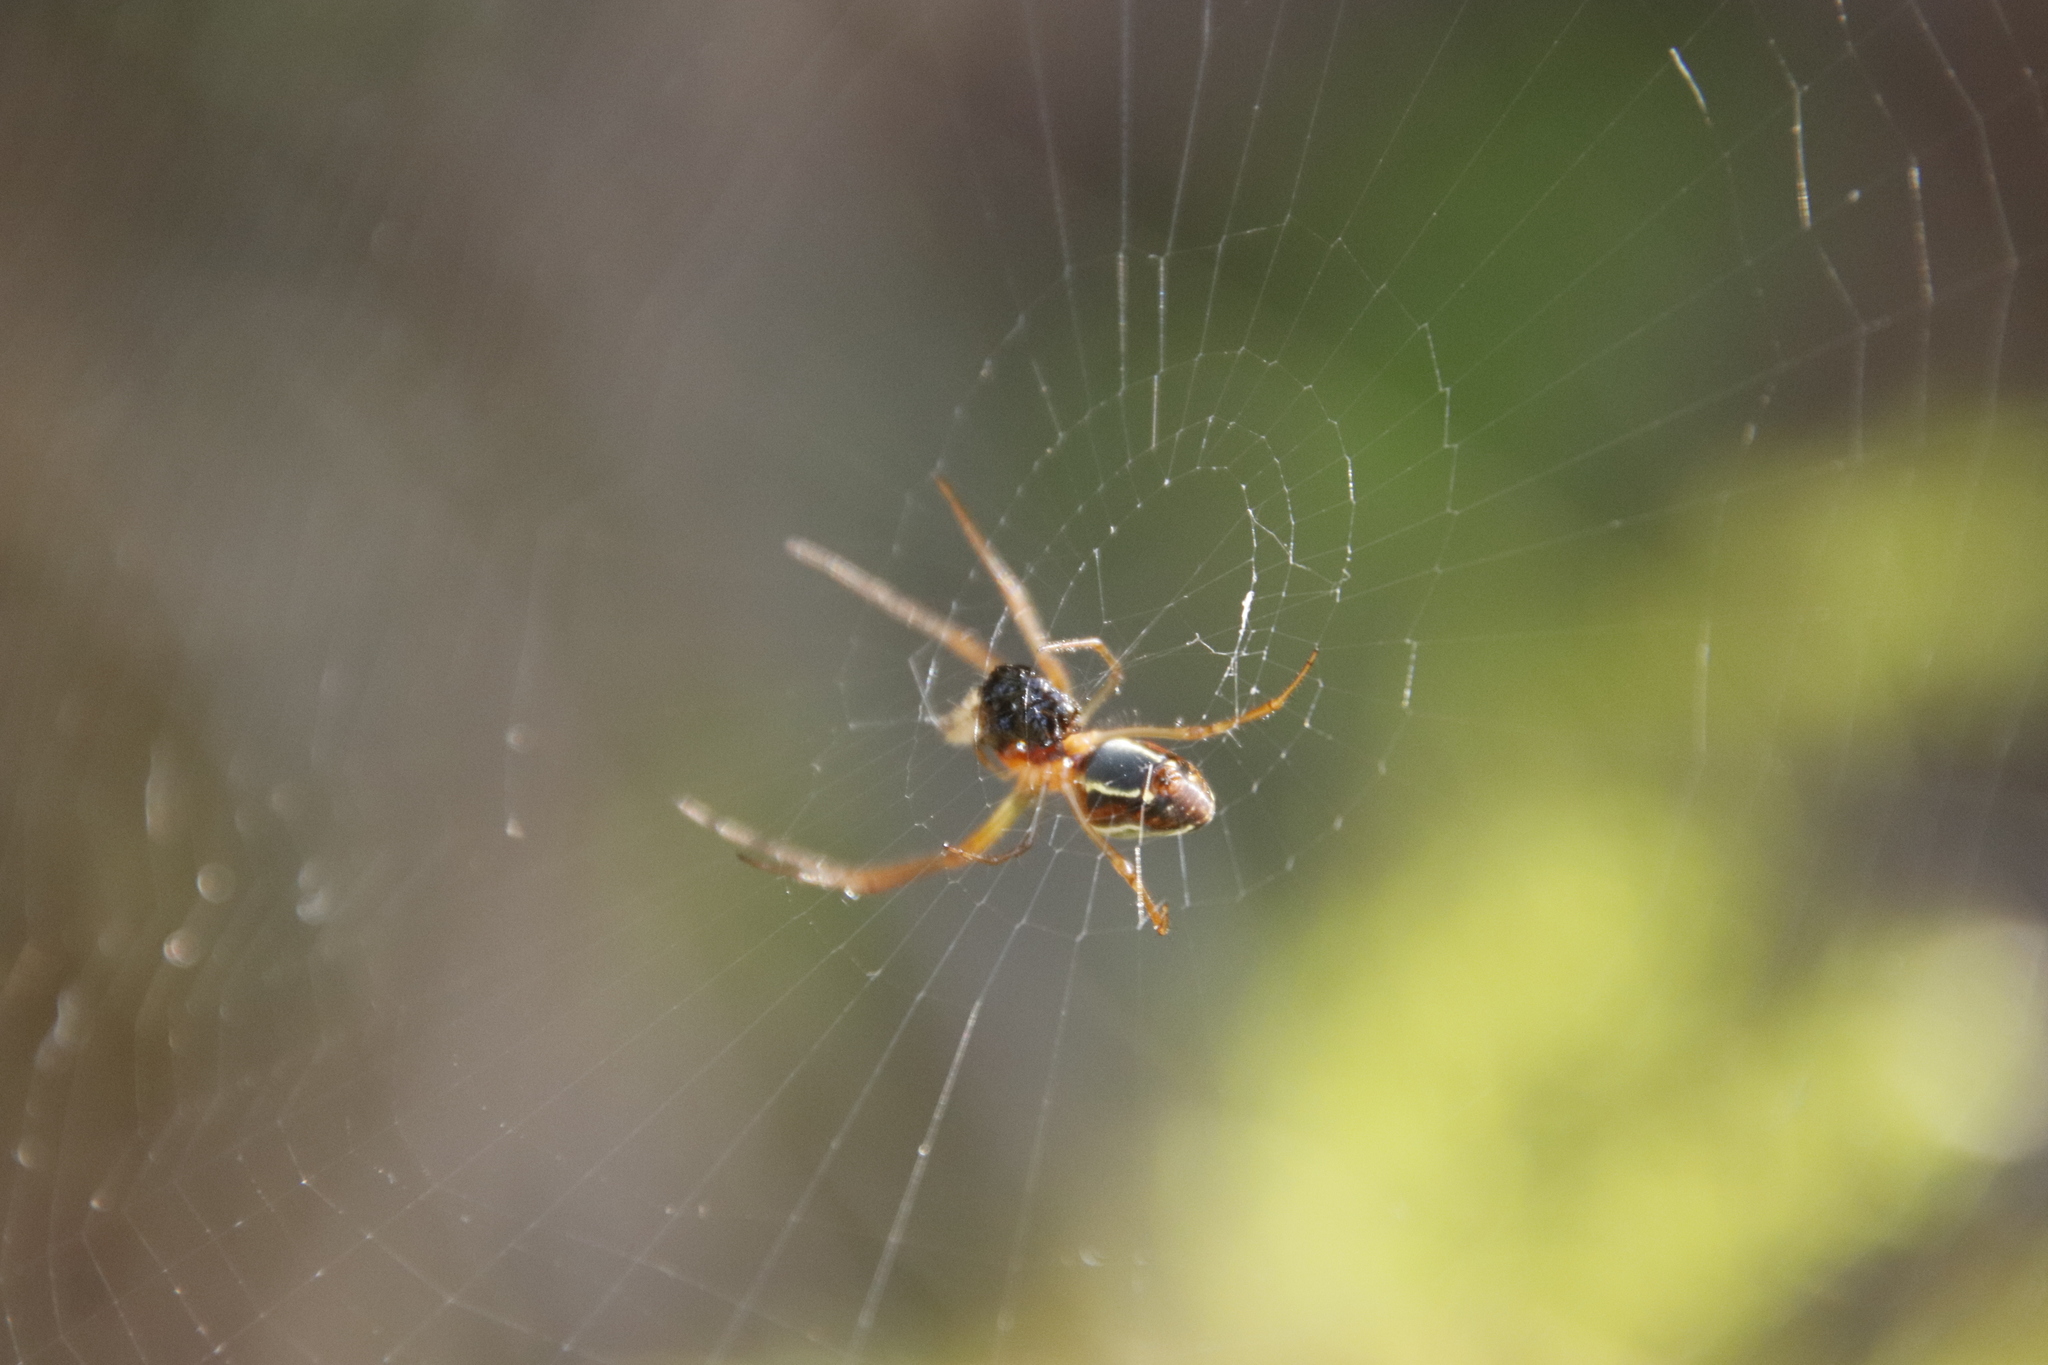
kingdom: Animalia
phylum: Arthropoda
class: Arachnida
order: Araneae
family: Tetragnathidae
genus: Leucauge
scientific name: Leucauge festiva
